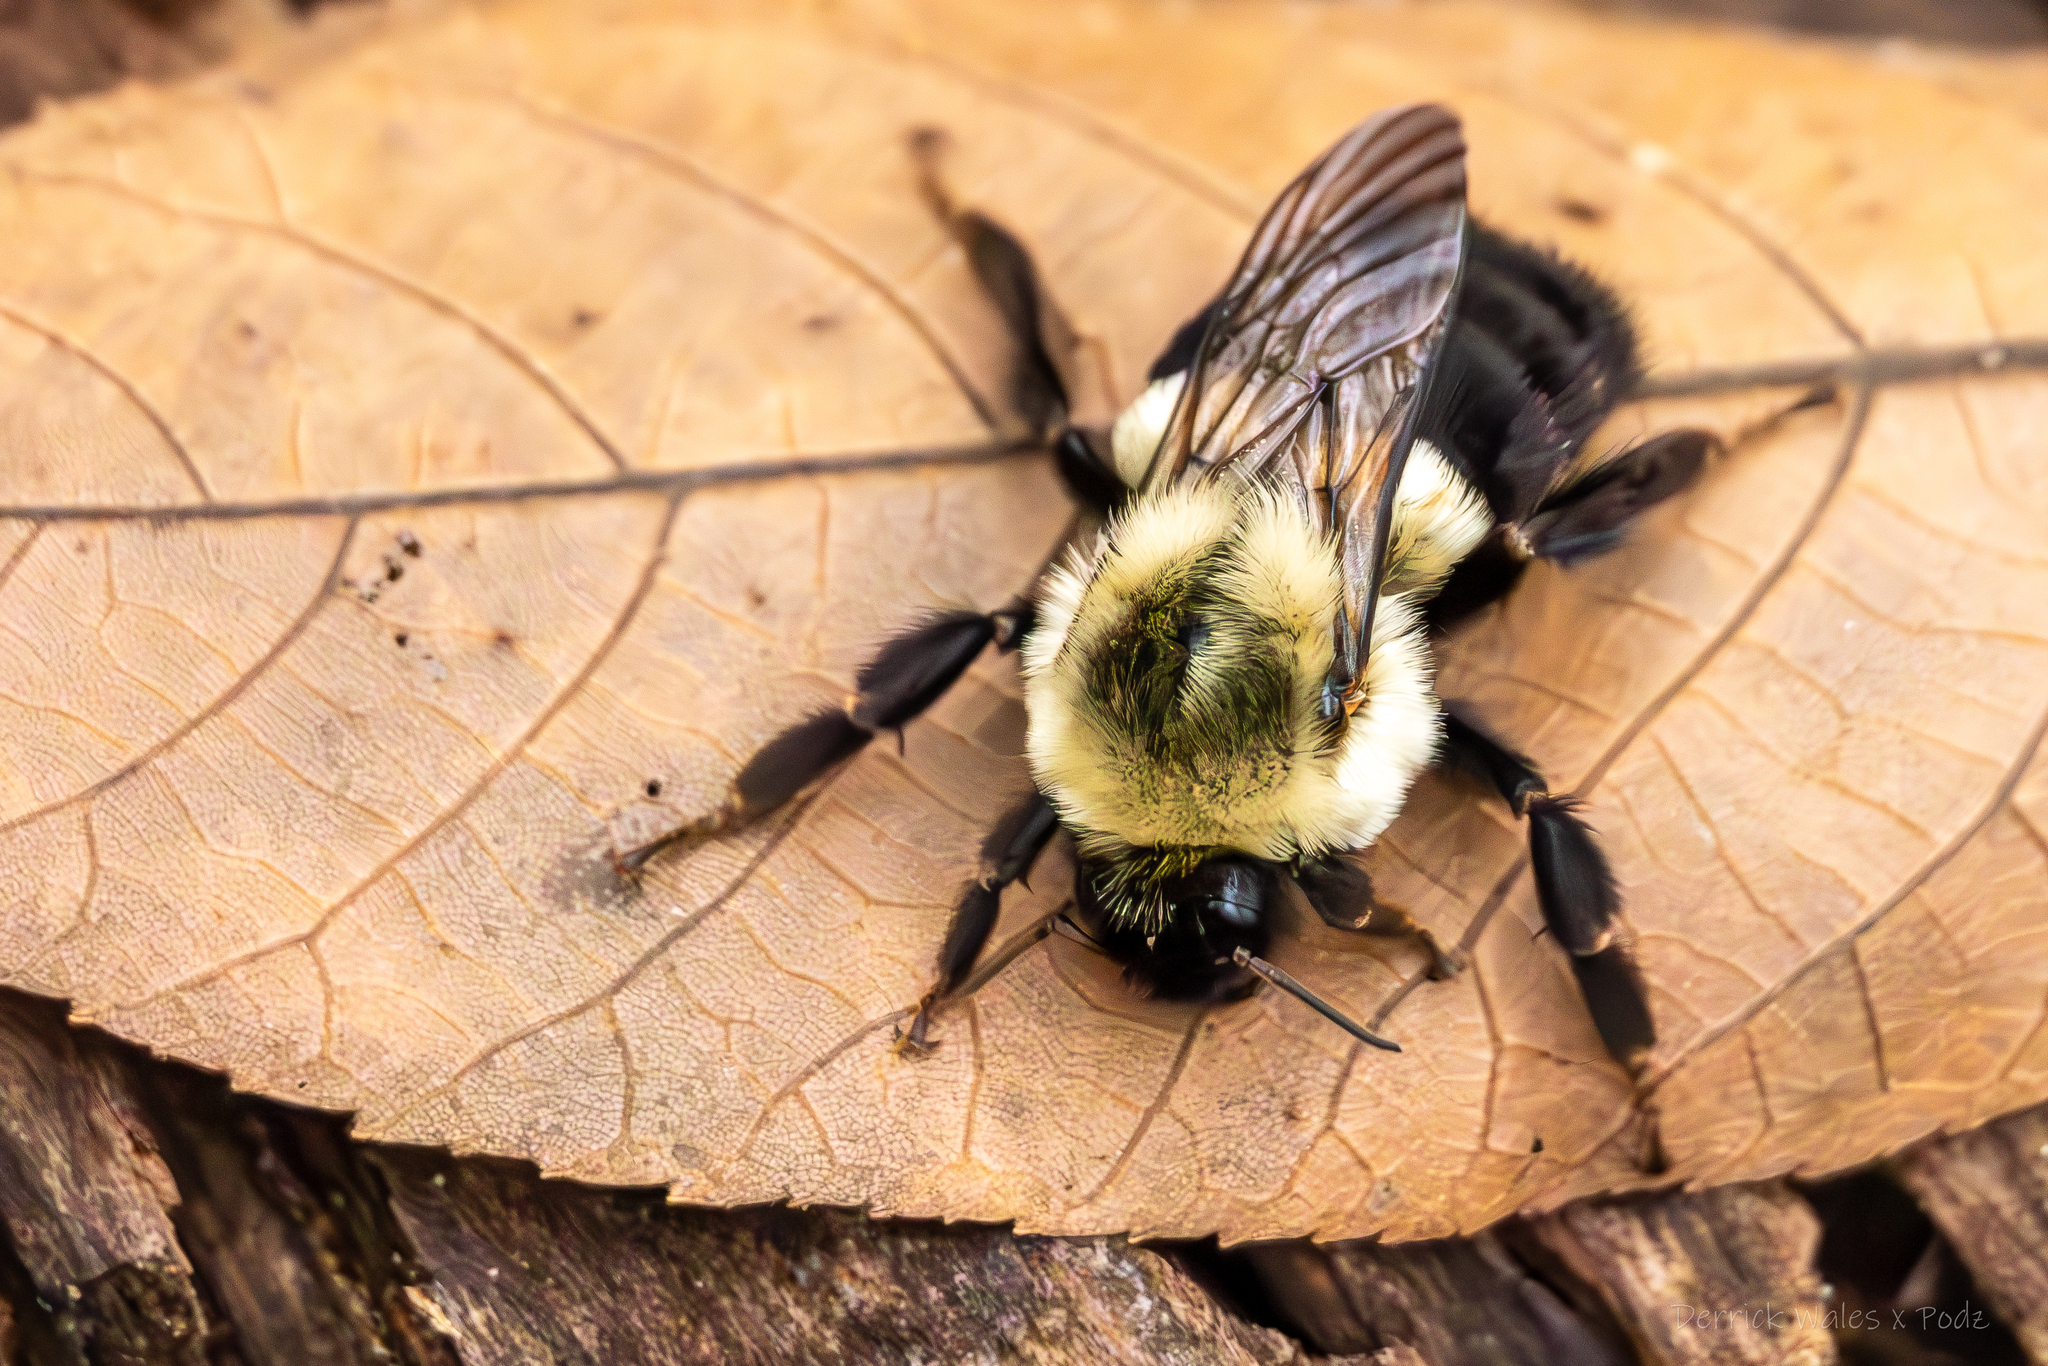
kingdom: Animalia
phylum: Arthropoda
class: Insecta
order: Hymenoptera
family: Apidae
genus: Bombus
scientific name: Bombus impatiens
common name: Common eastern bumble bee
